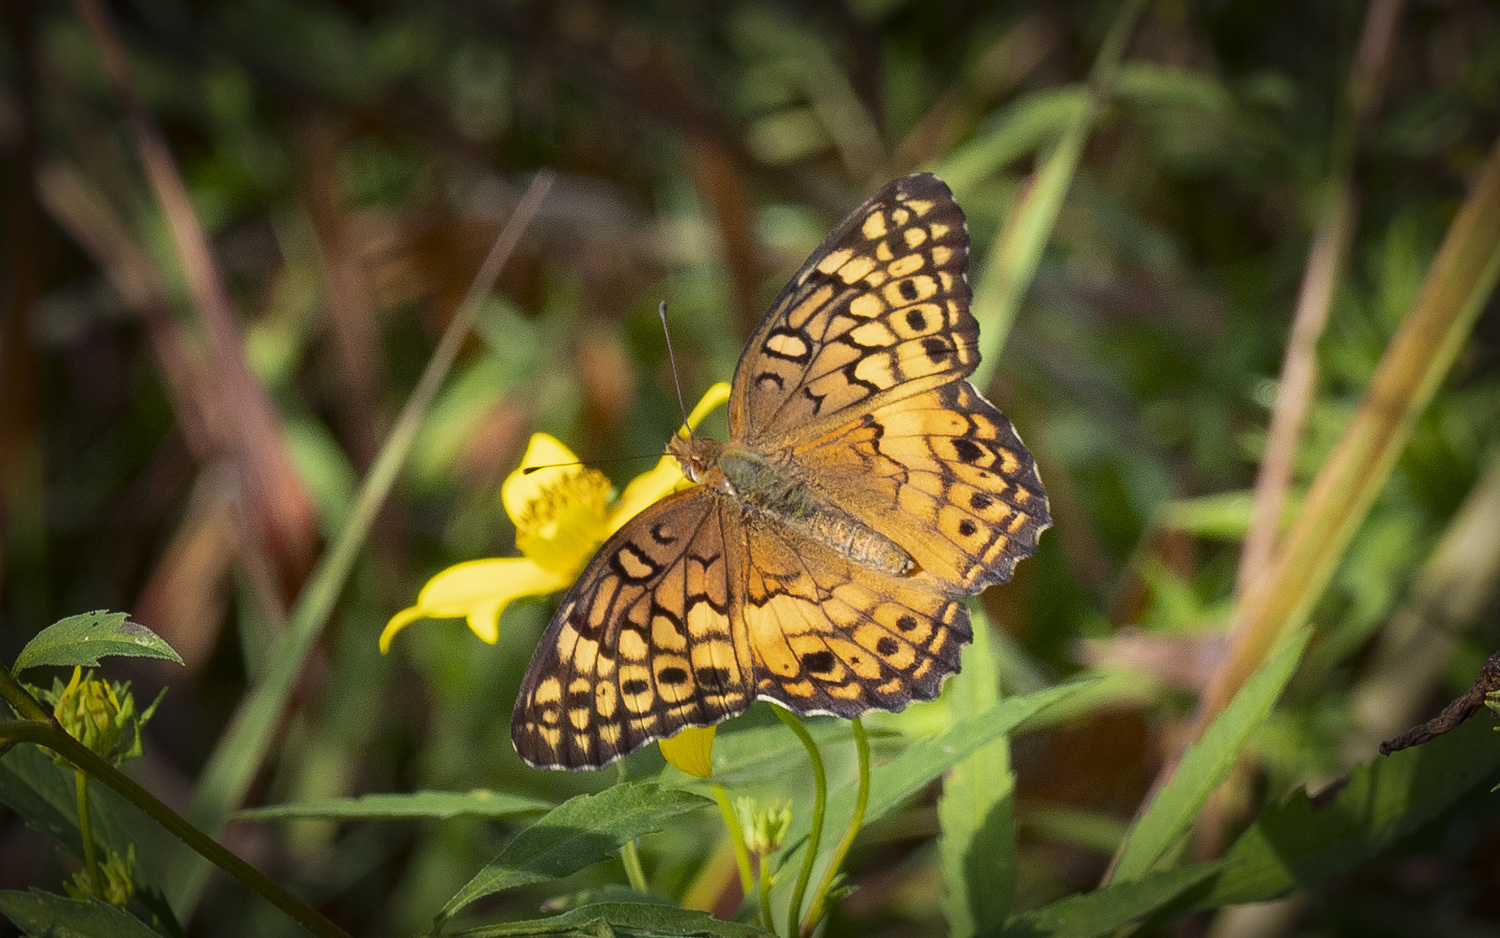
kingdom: Animalia
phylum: Arthropoda
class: Insecta
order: Lepidoptera
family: Nymphalidae
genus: Euptoieta
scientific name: Euptoieta claudia
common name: Variegated fritillary
